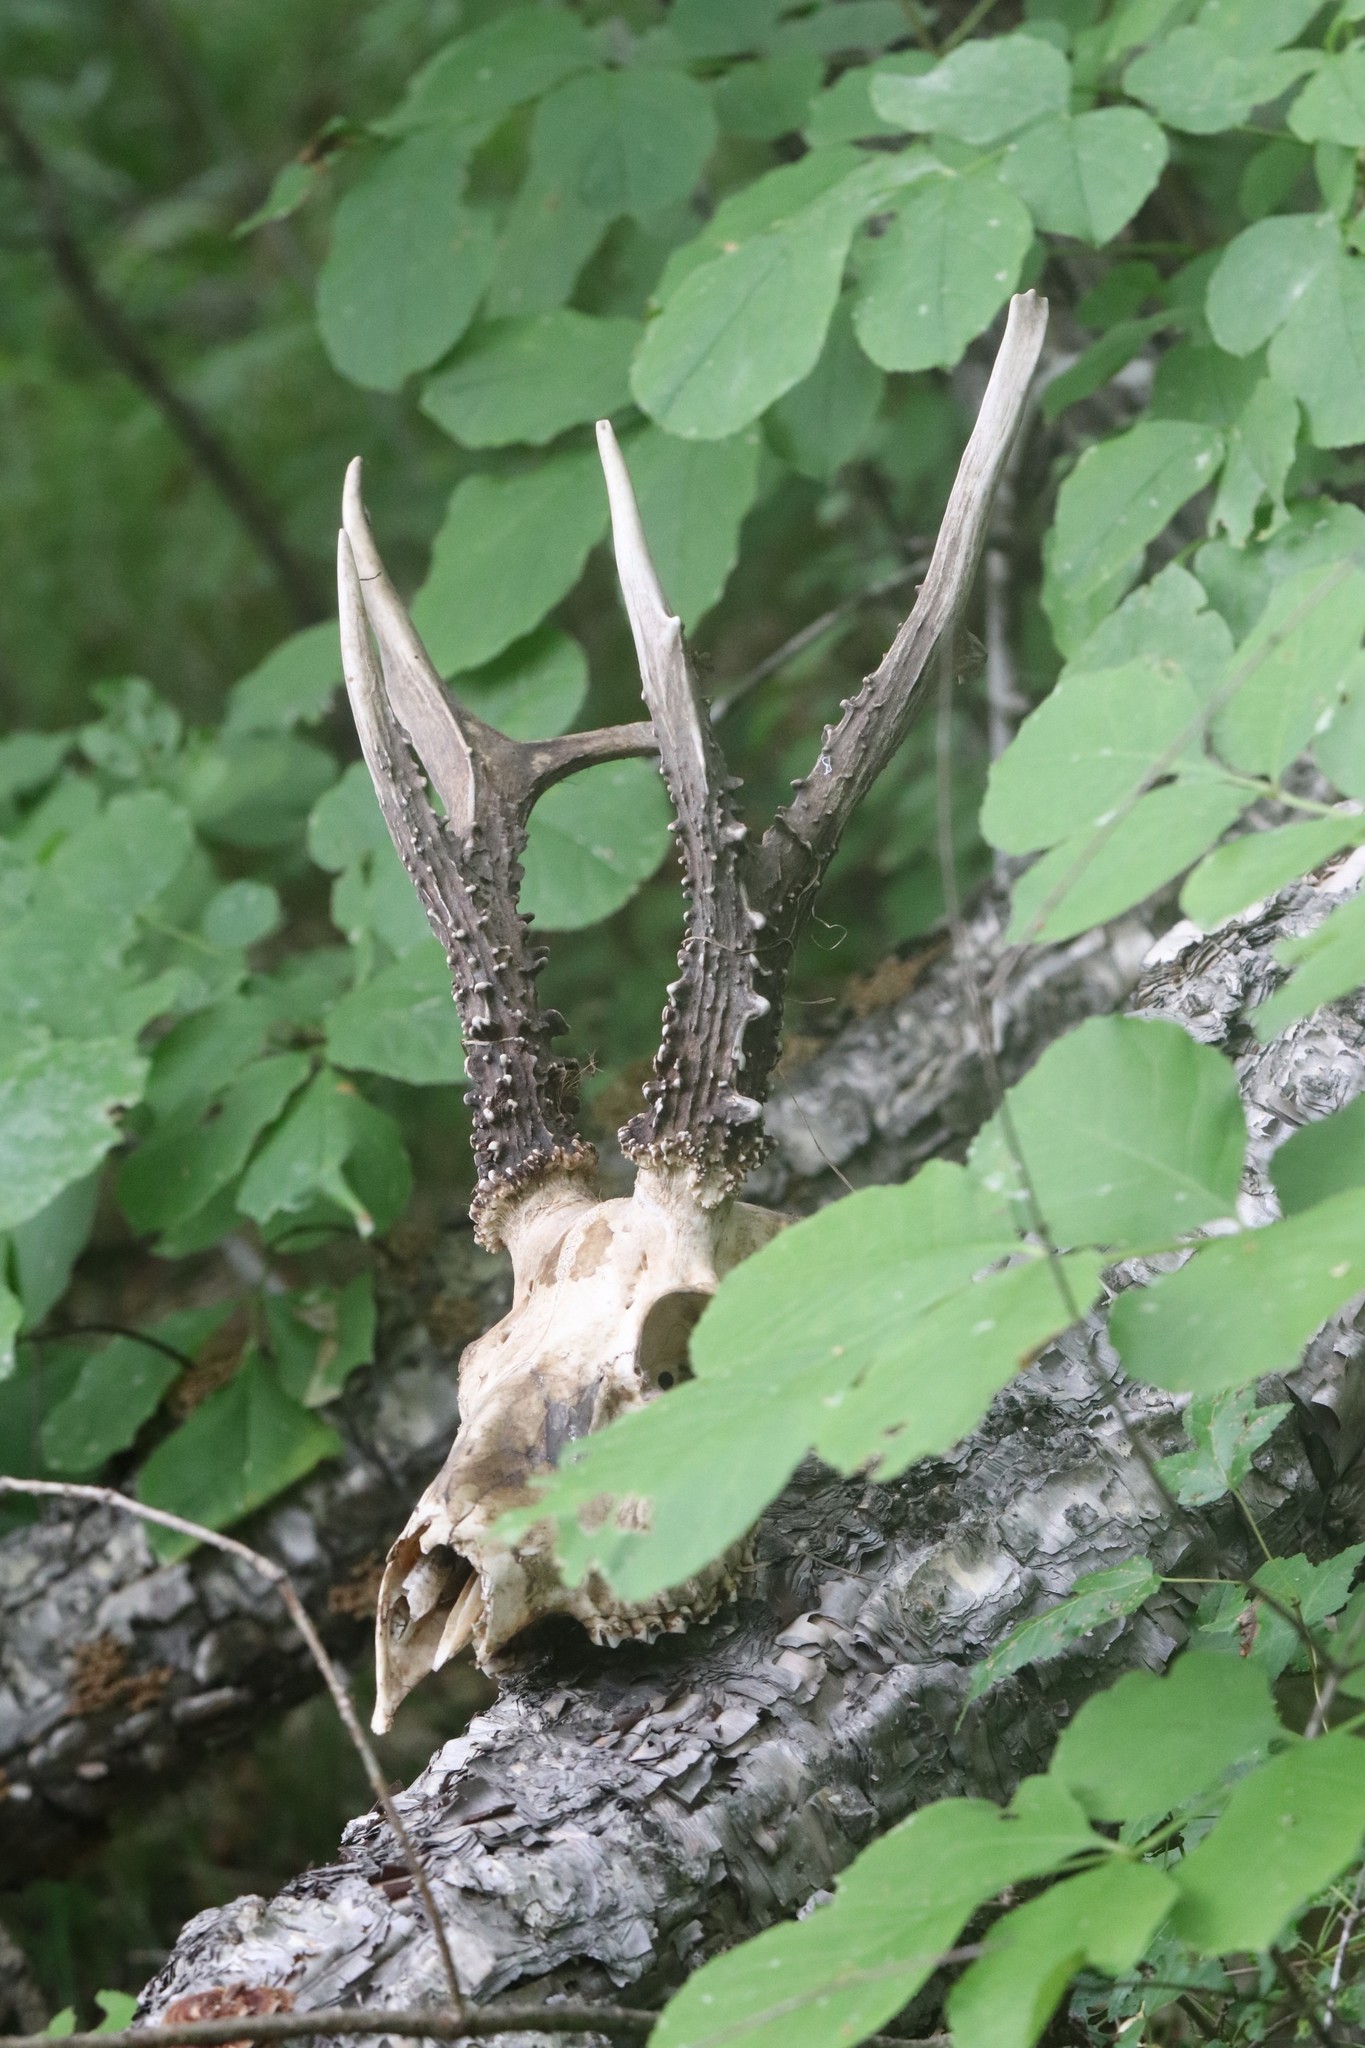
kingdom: Animalia
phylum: Chordata
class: Mammalia
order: Artiodactyla
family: Cervidae
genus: Capreolus
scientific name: Capreolus pygargus
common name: Siberian roe
